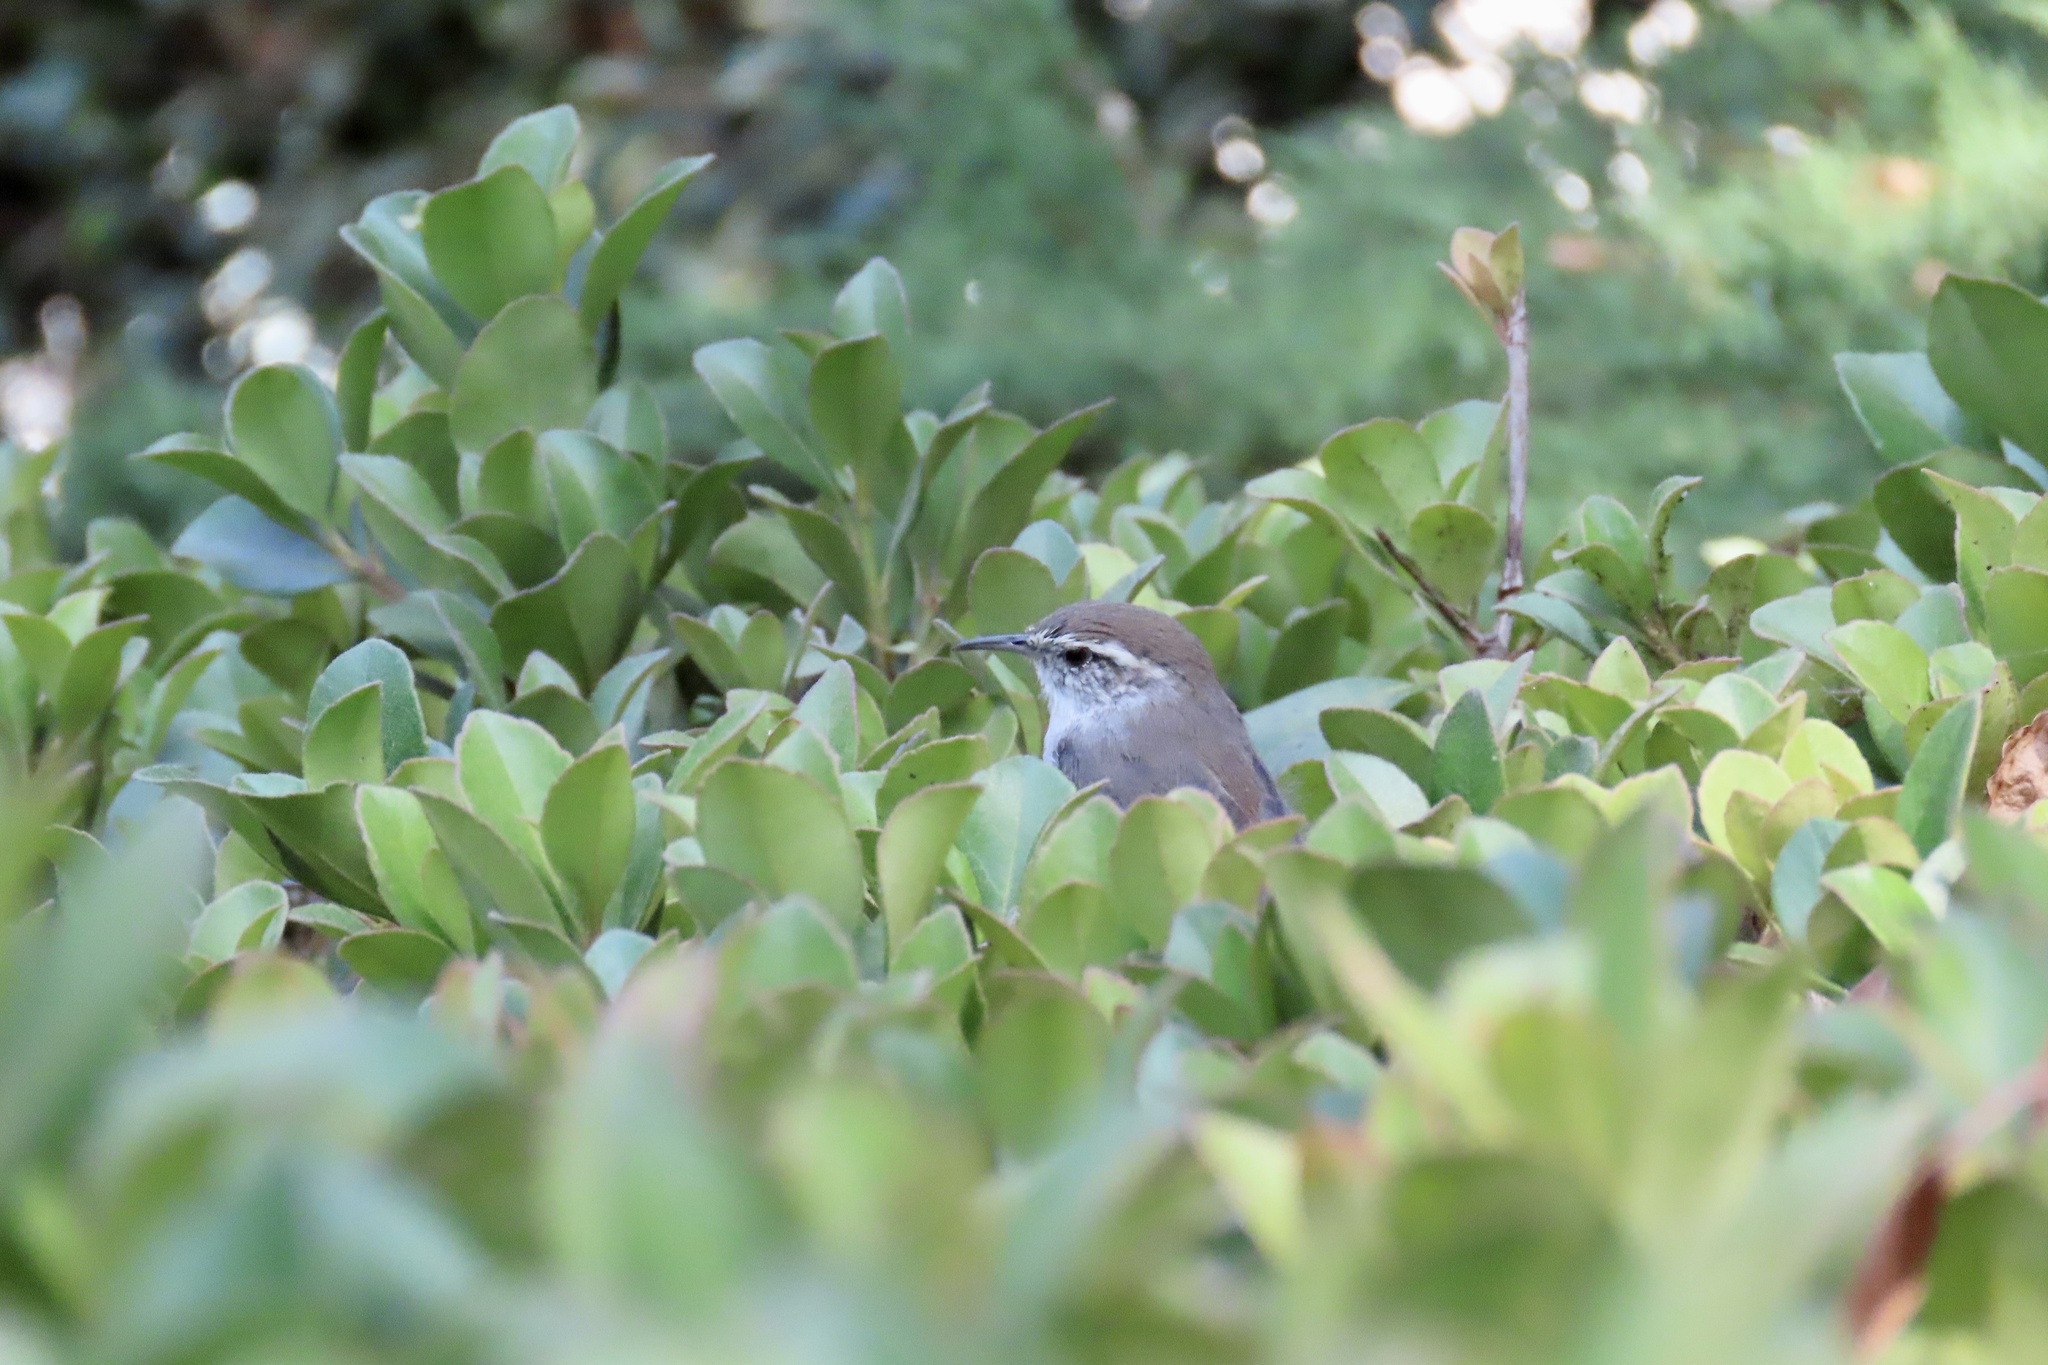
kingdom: Animalia
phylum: Chordata
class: Aves
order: Passeriformes
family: Troglodytidae
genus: Thryomanes
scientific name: Thryomanes bewickii
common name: Bewick's wren
